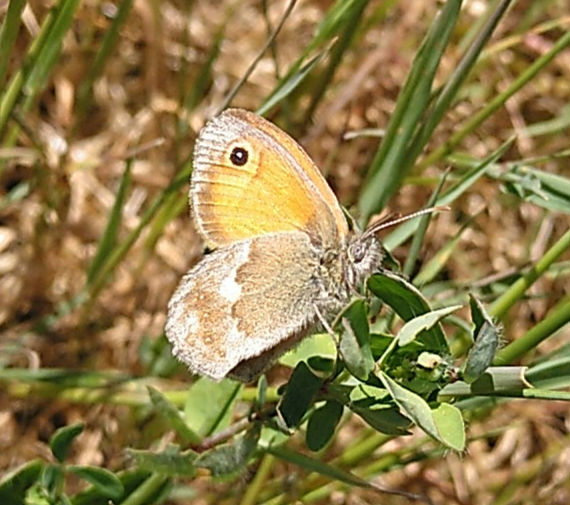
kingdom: Animalia
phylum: Arthropoda
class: Insecta
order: Lepidoptera
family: Nymphalidae
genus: Coenonympha
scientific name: Coenonympha pamphilus
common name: Small heath
